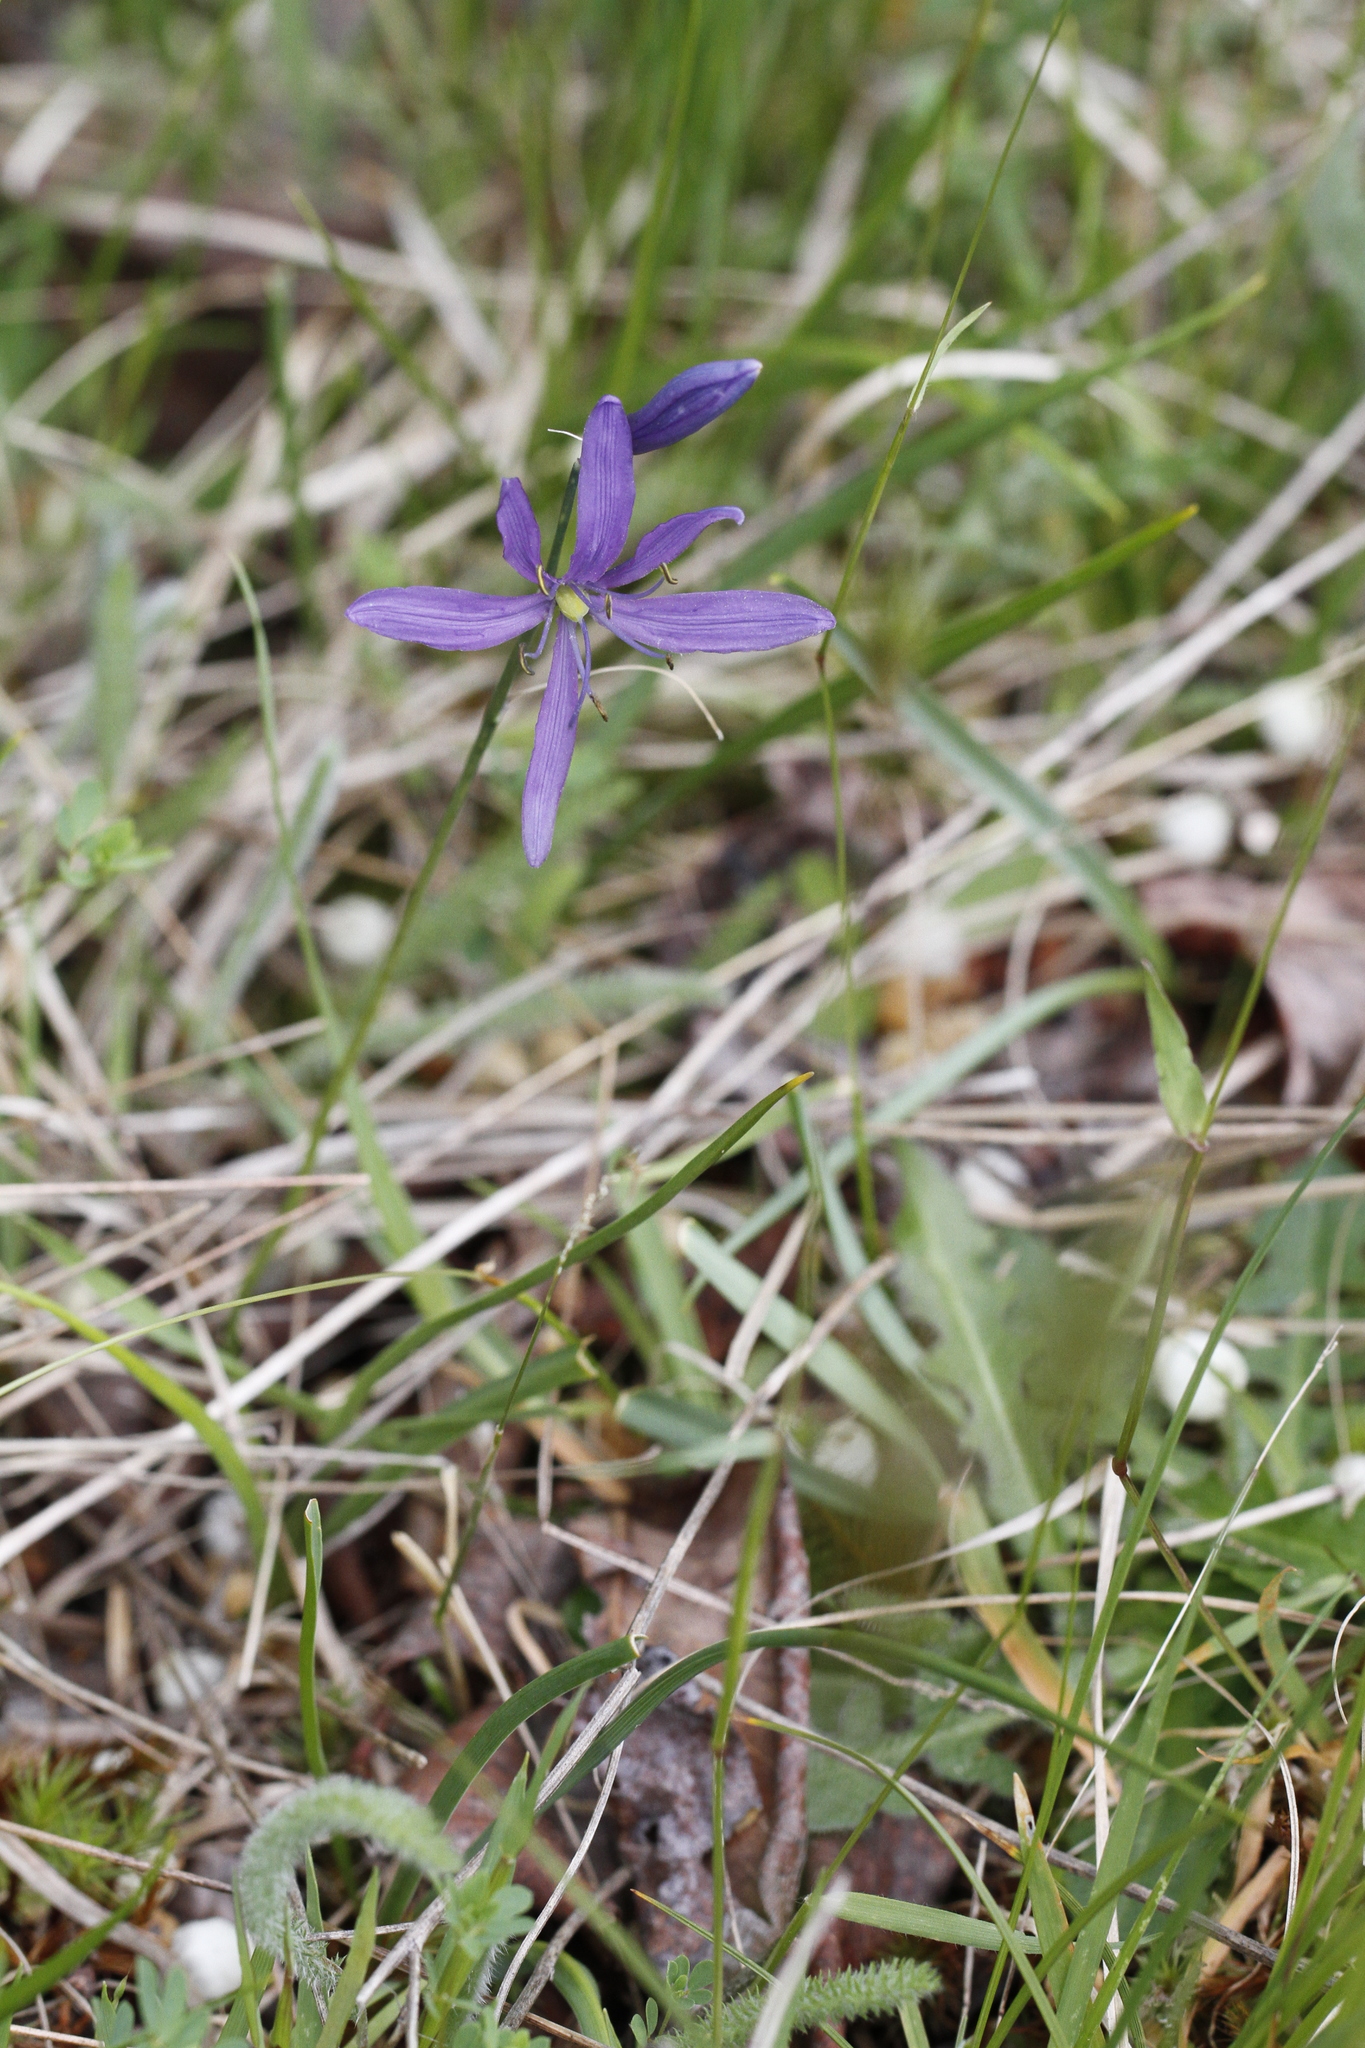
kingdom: Plantae
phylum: Tracheophyta
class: Liliopsida
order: Asparagales
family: Asparagaceae
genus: Camassia
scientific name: Camassia quamash
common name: Common camas
